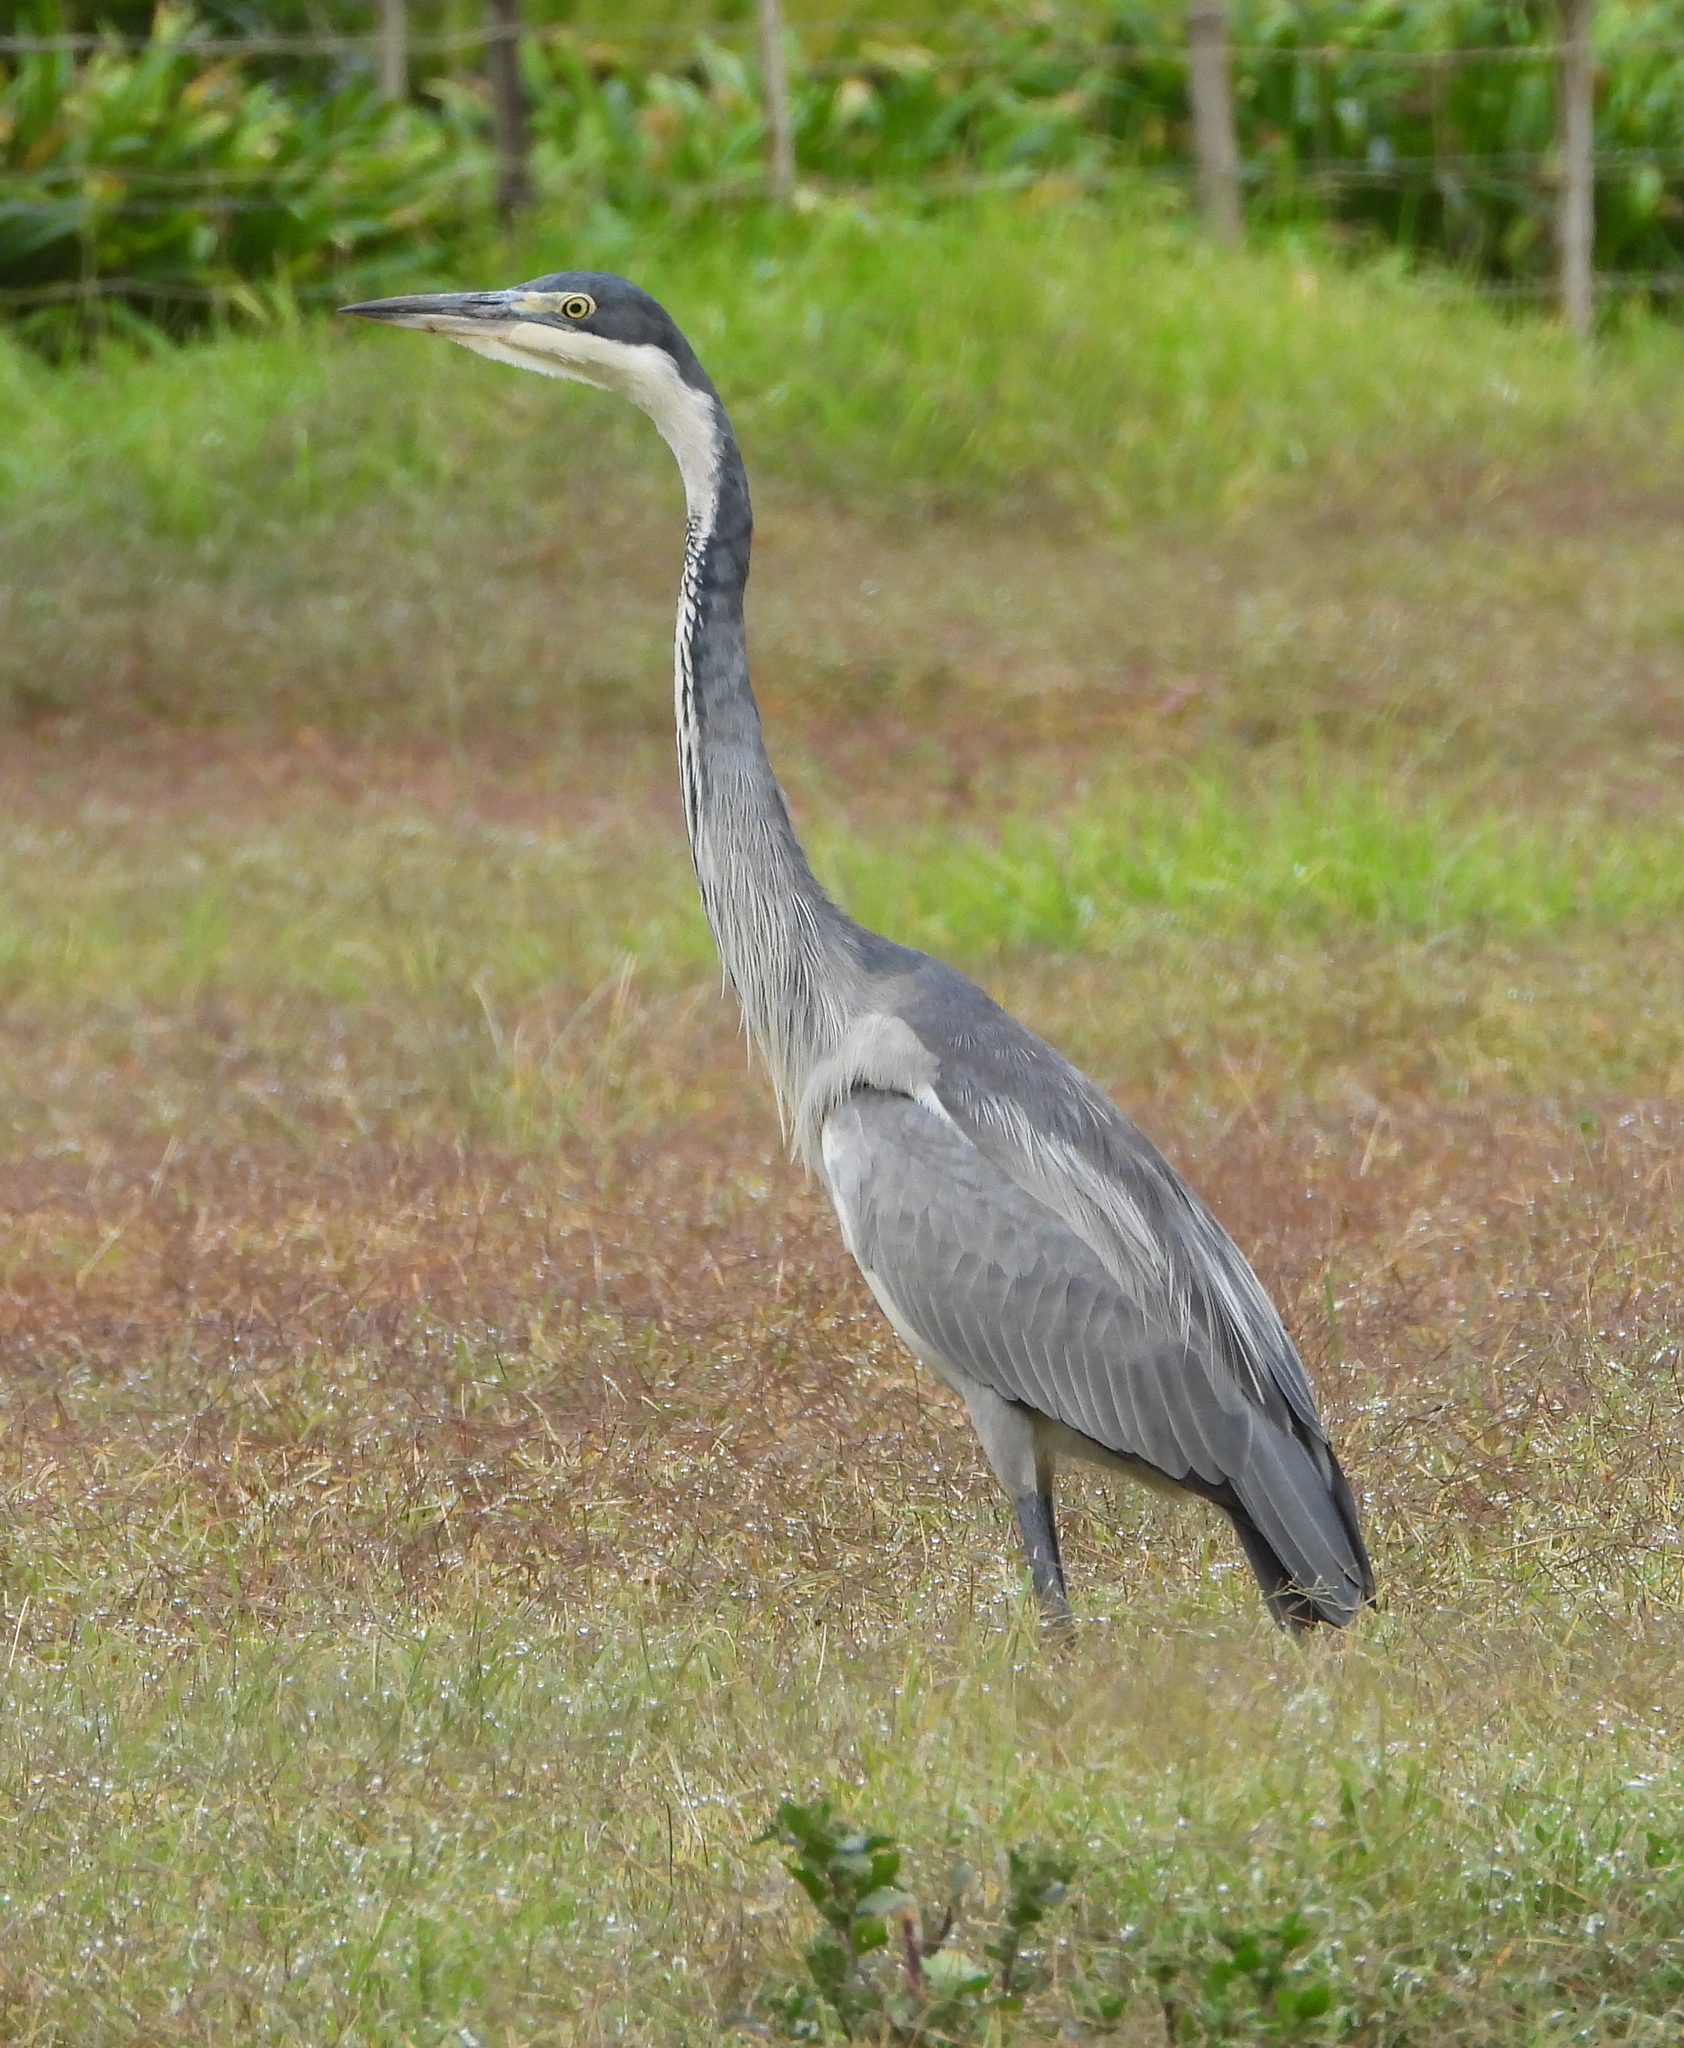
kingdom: Animalia
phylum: Chordata
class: Aves
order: Pelecaniformes
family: Ardeidae
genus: Ardea
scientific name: Ardea melanocephala
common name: Black-headed heron
